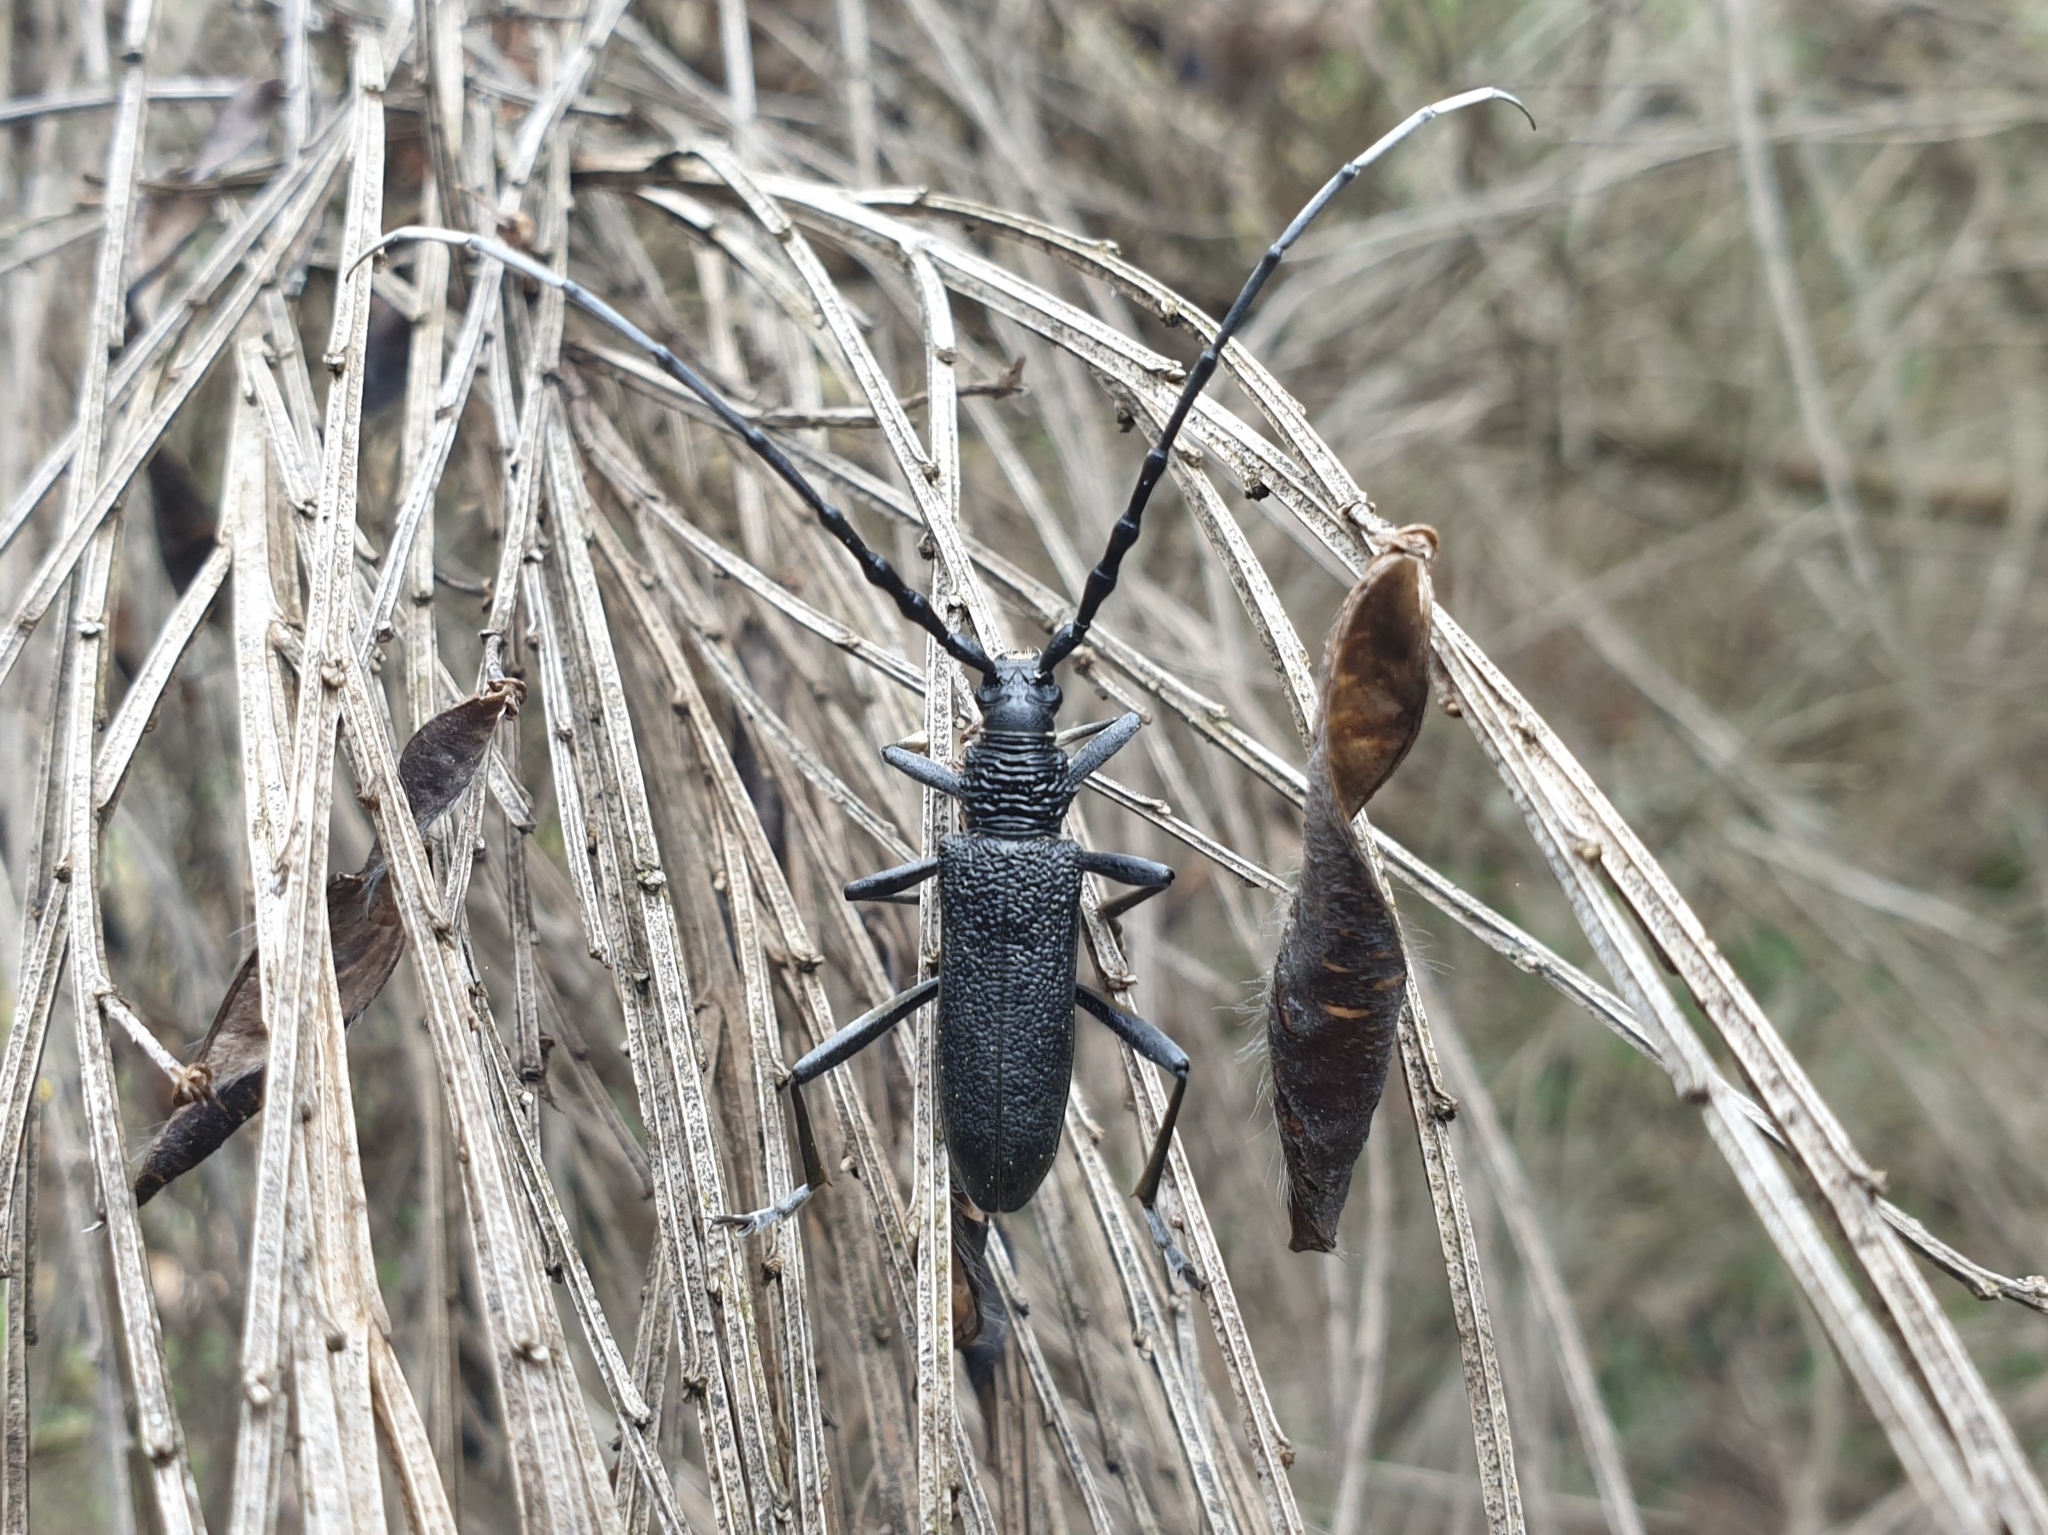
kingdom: Animalia
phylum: Arthropoda
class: Insecta
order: Coleoptera
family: Cerambycidae
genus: Cerambyx
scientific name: Cerambyx scopolii
